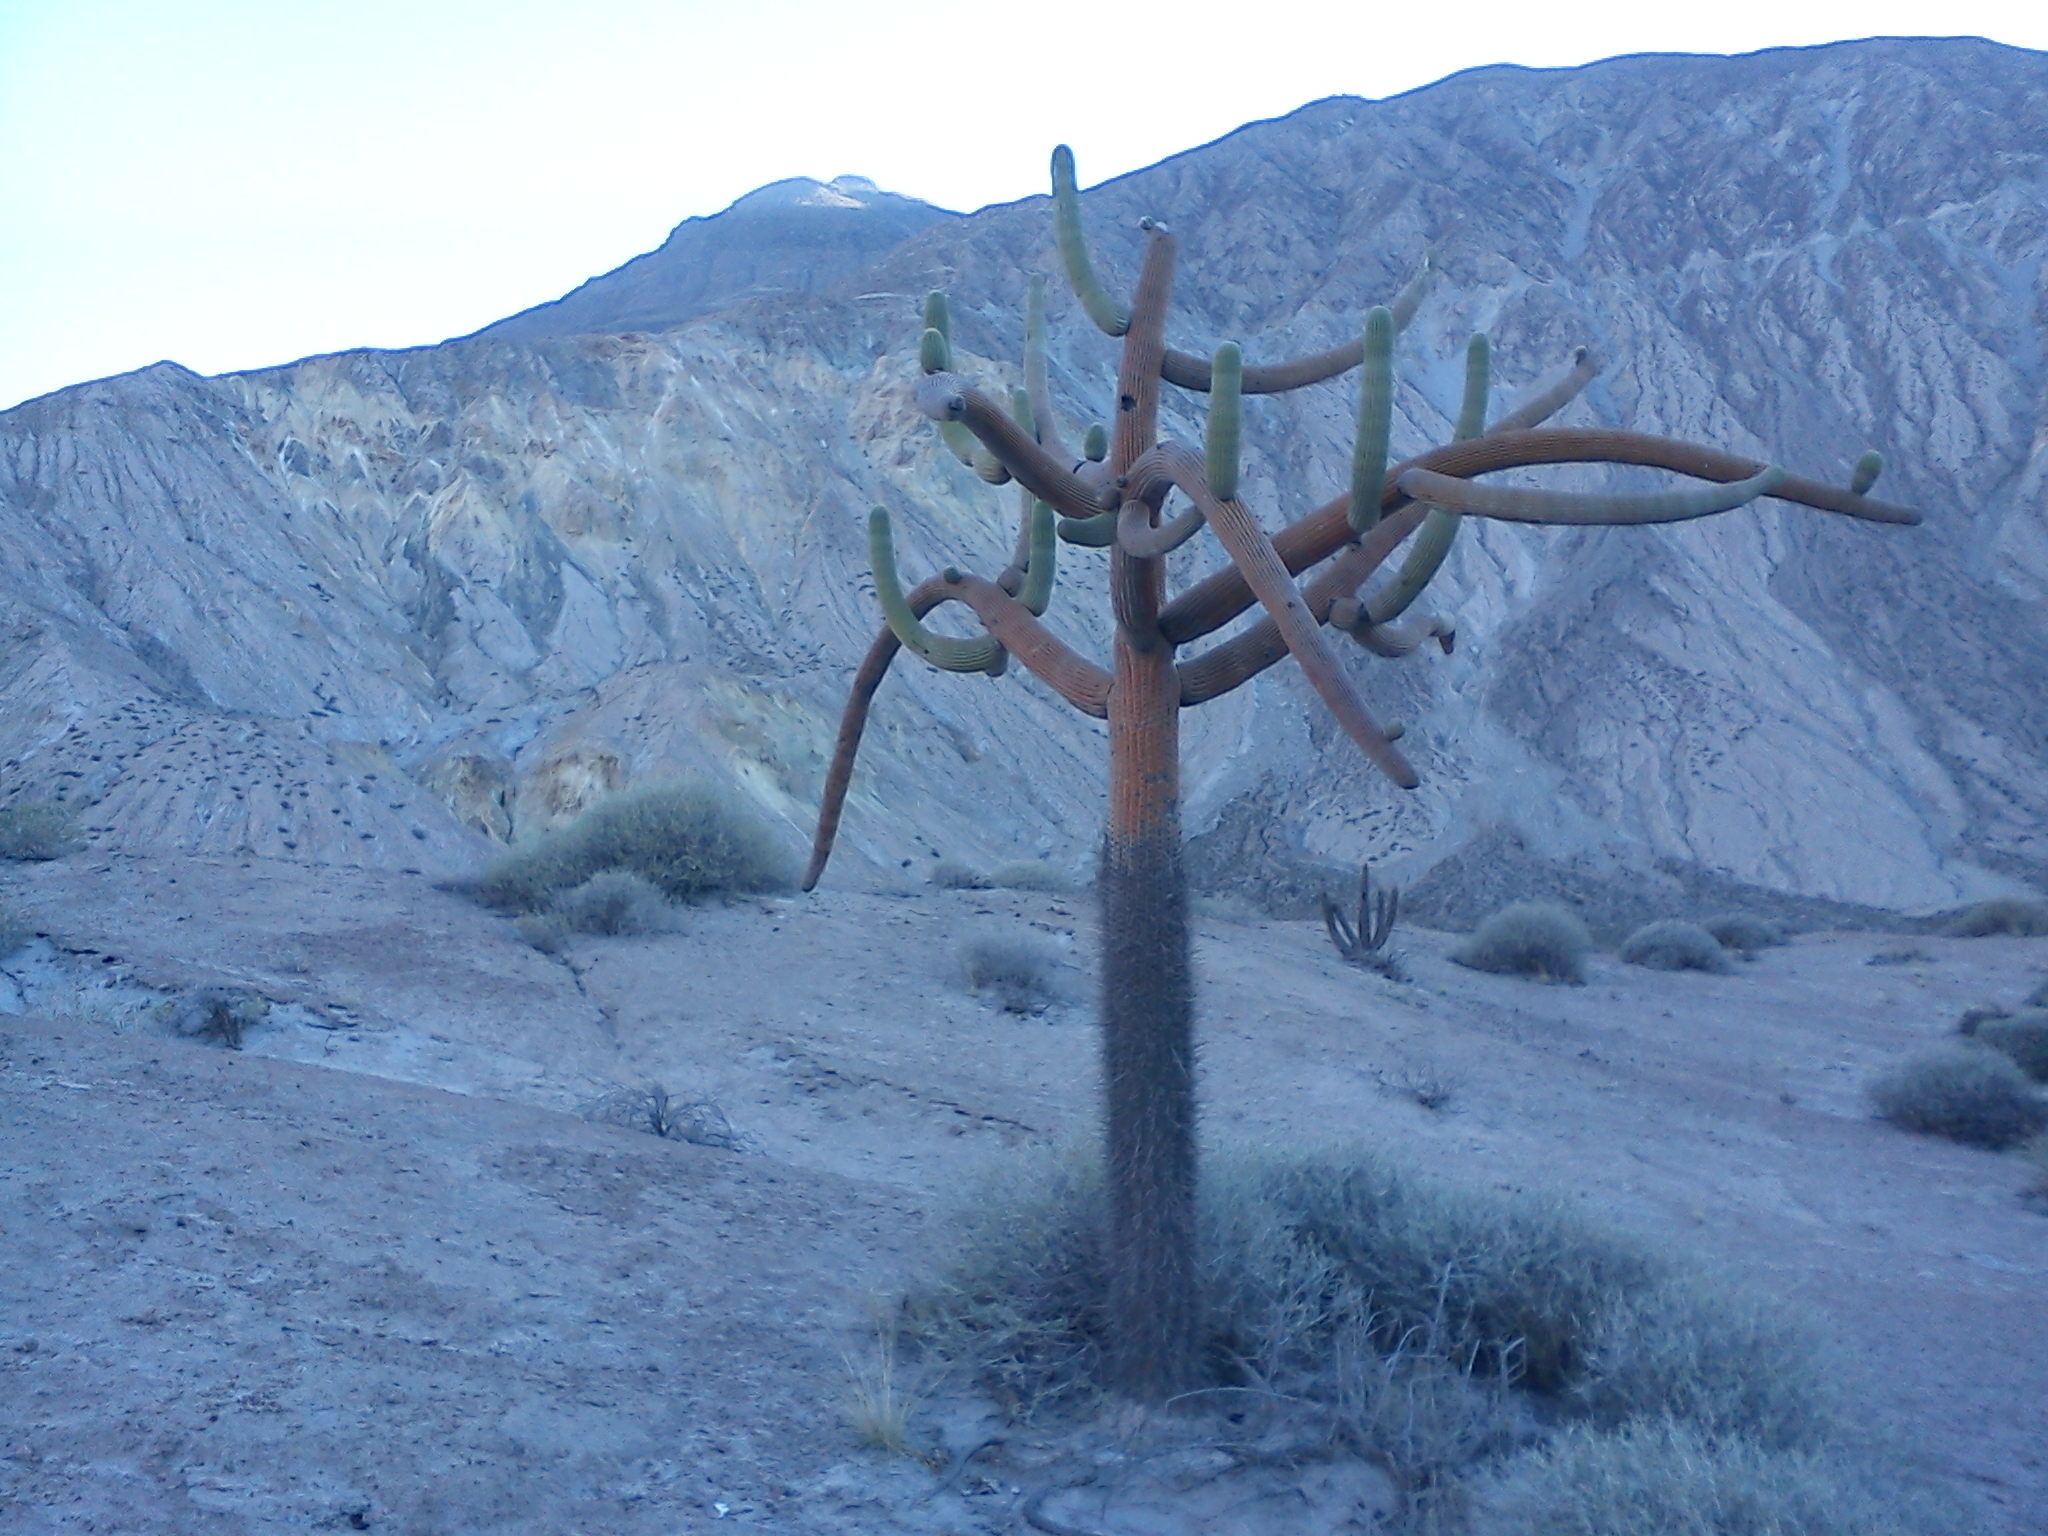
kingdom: Plantae
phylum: Tracheophyta
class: Magnoliopsida
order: Caryophyllales
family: Cactaceae
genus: Browningia
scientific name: Browningia candelaris
